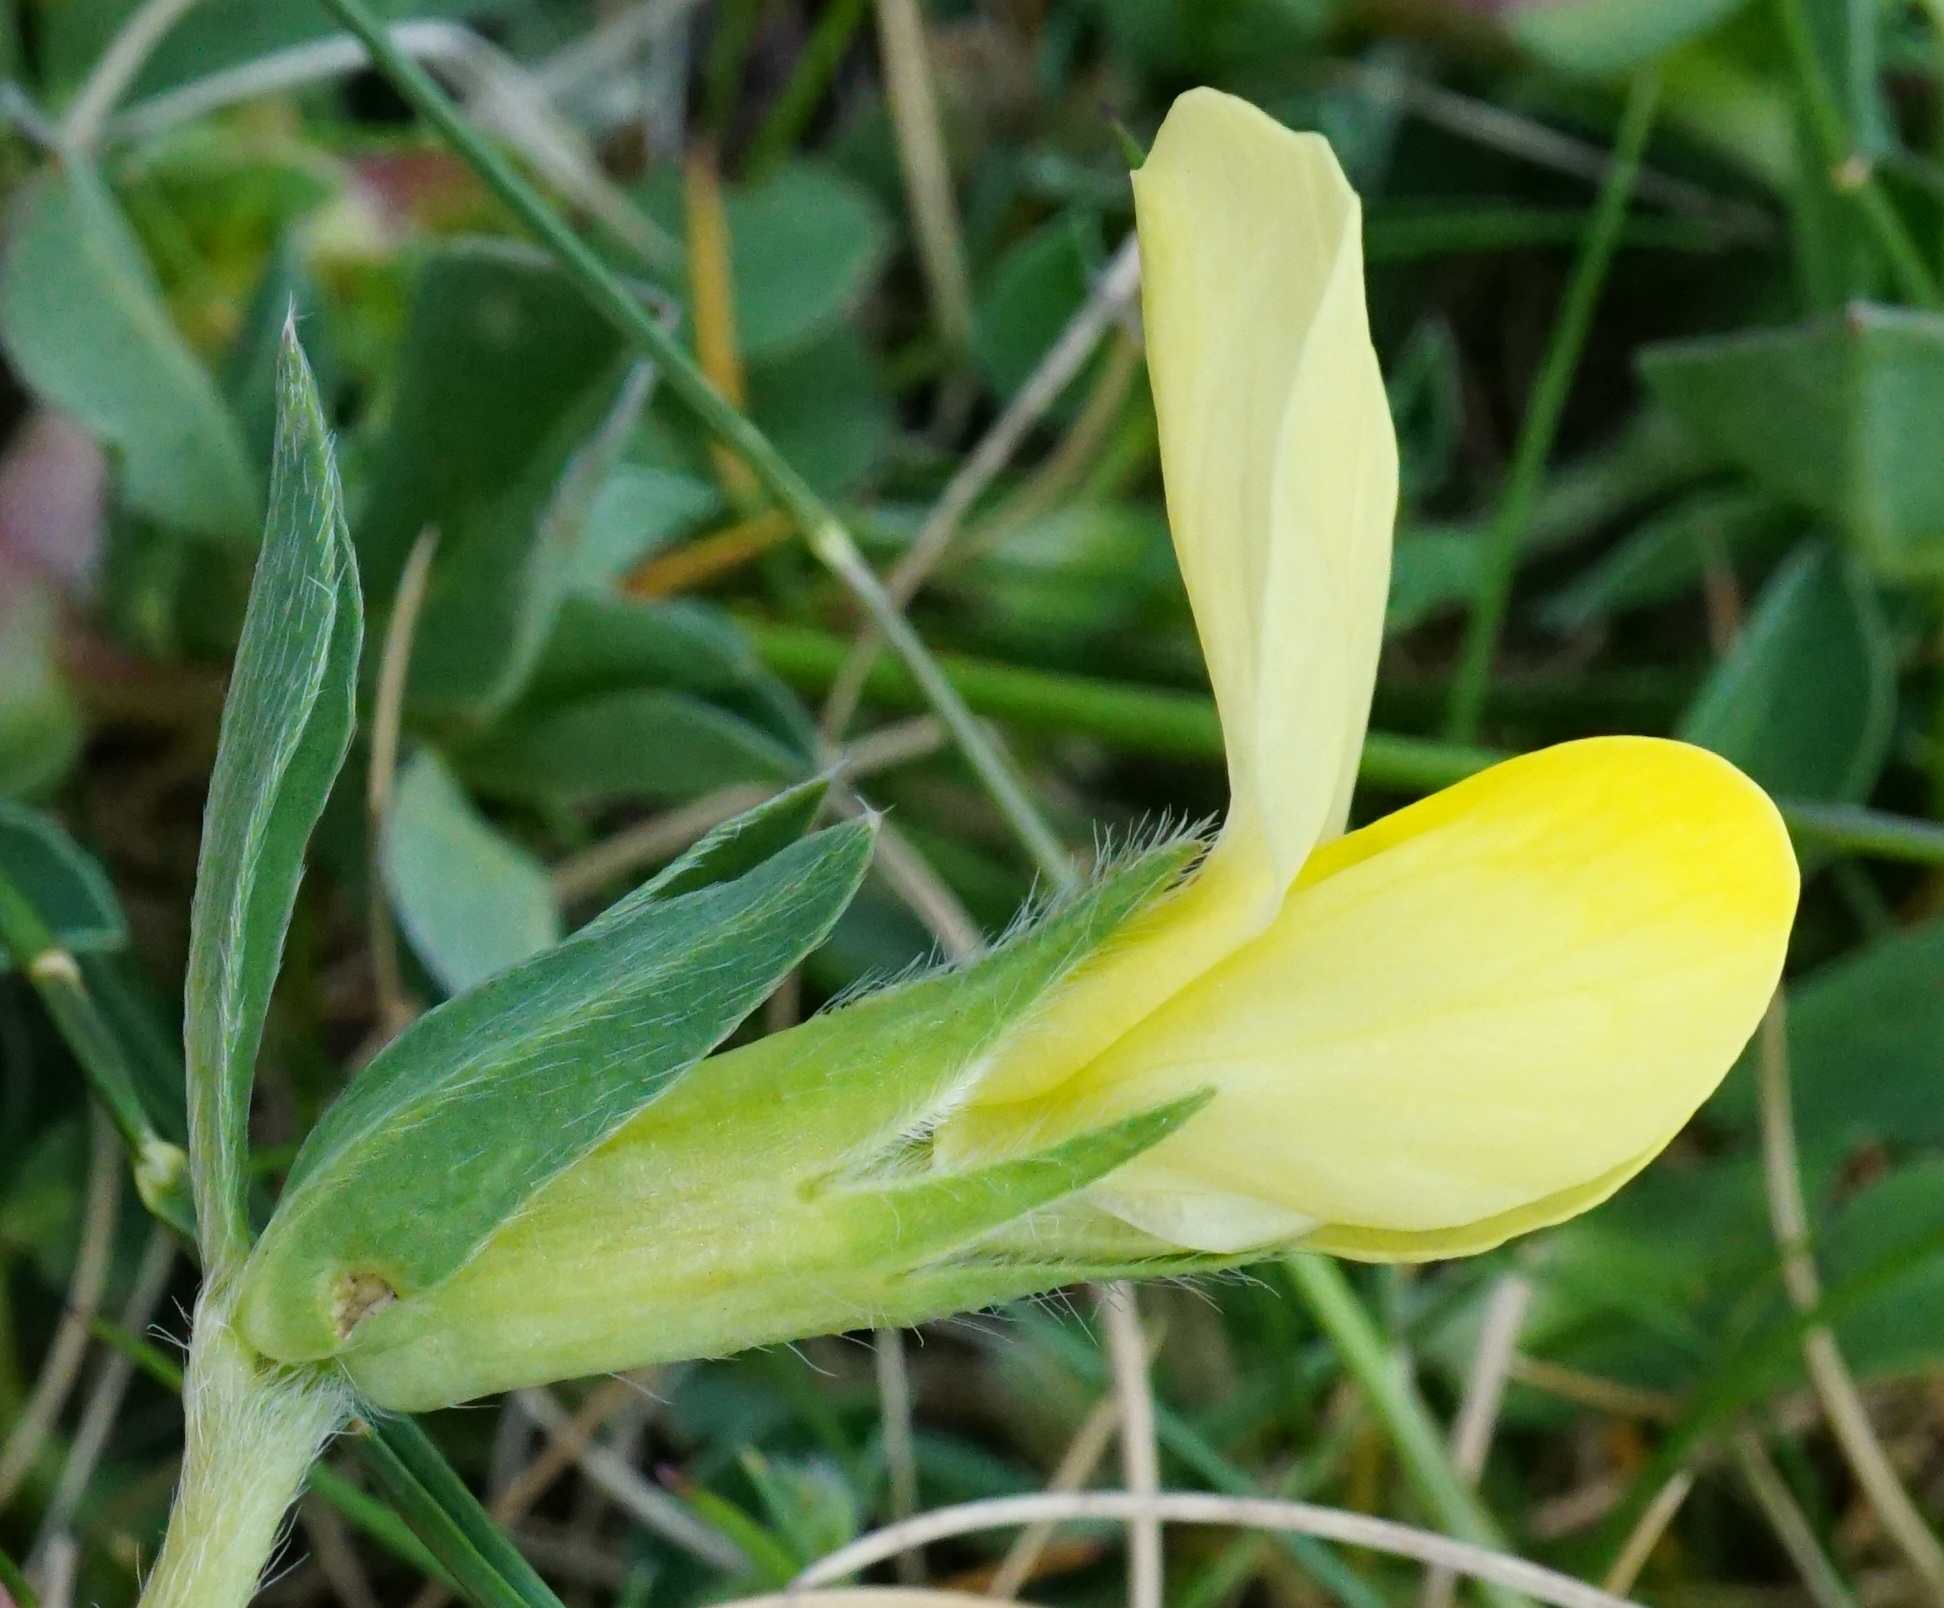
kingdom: Plantae
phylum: Tracheophyta
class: Magnoliopsida
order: Fabales
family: Fabaceae
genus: Lotus
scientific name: Lotus maritimus
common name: Dragon's-teeth
